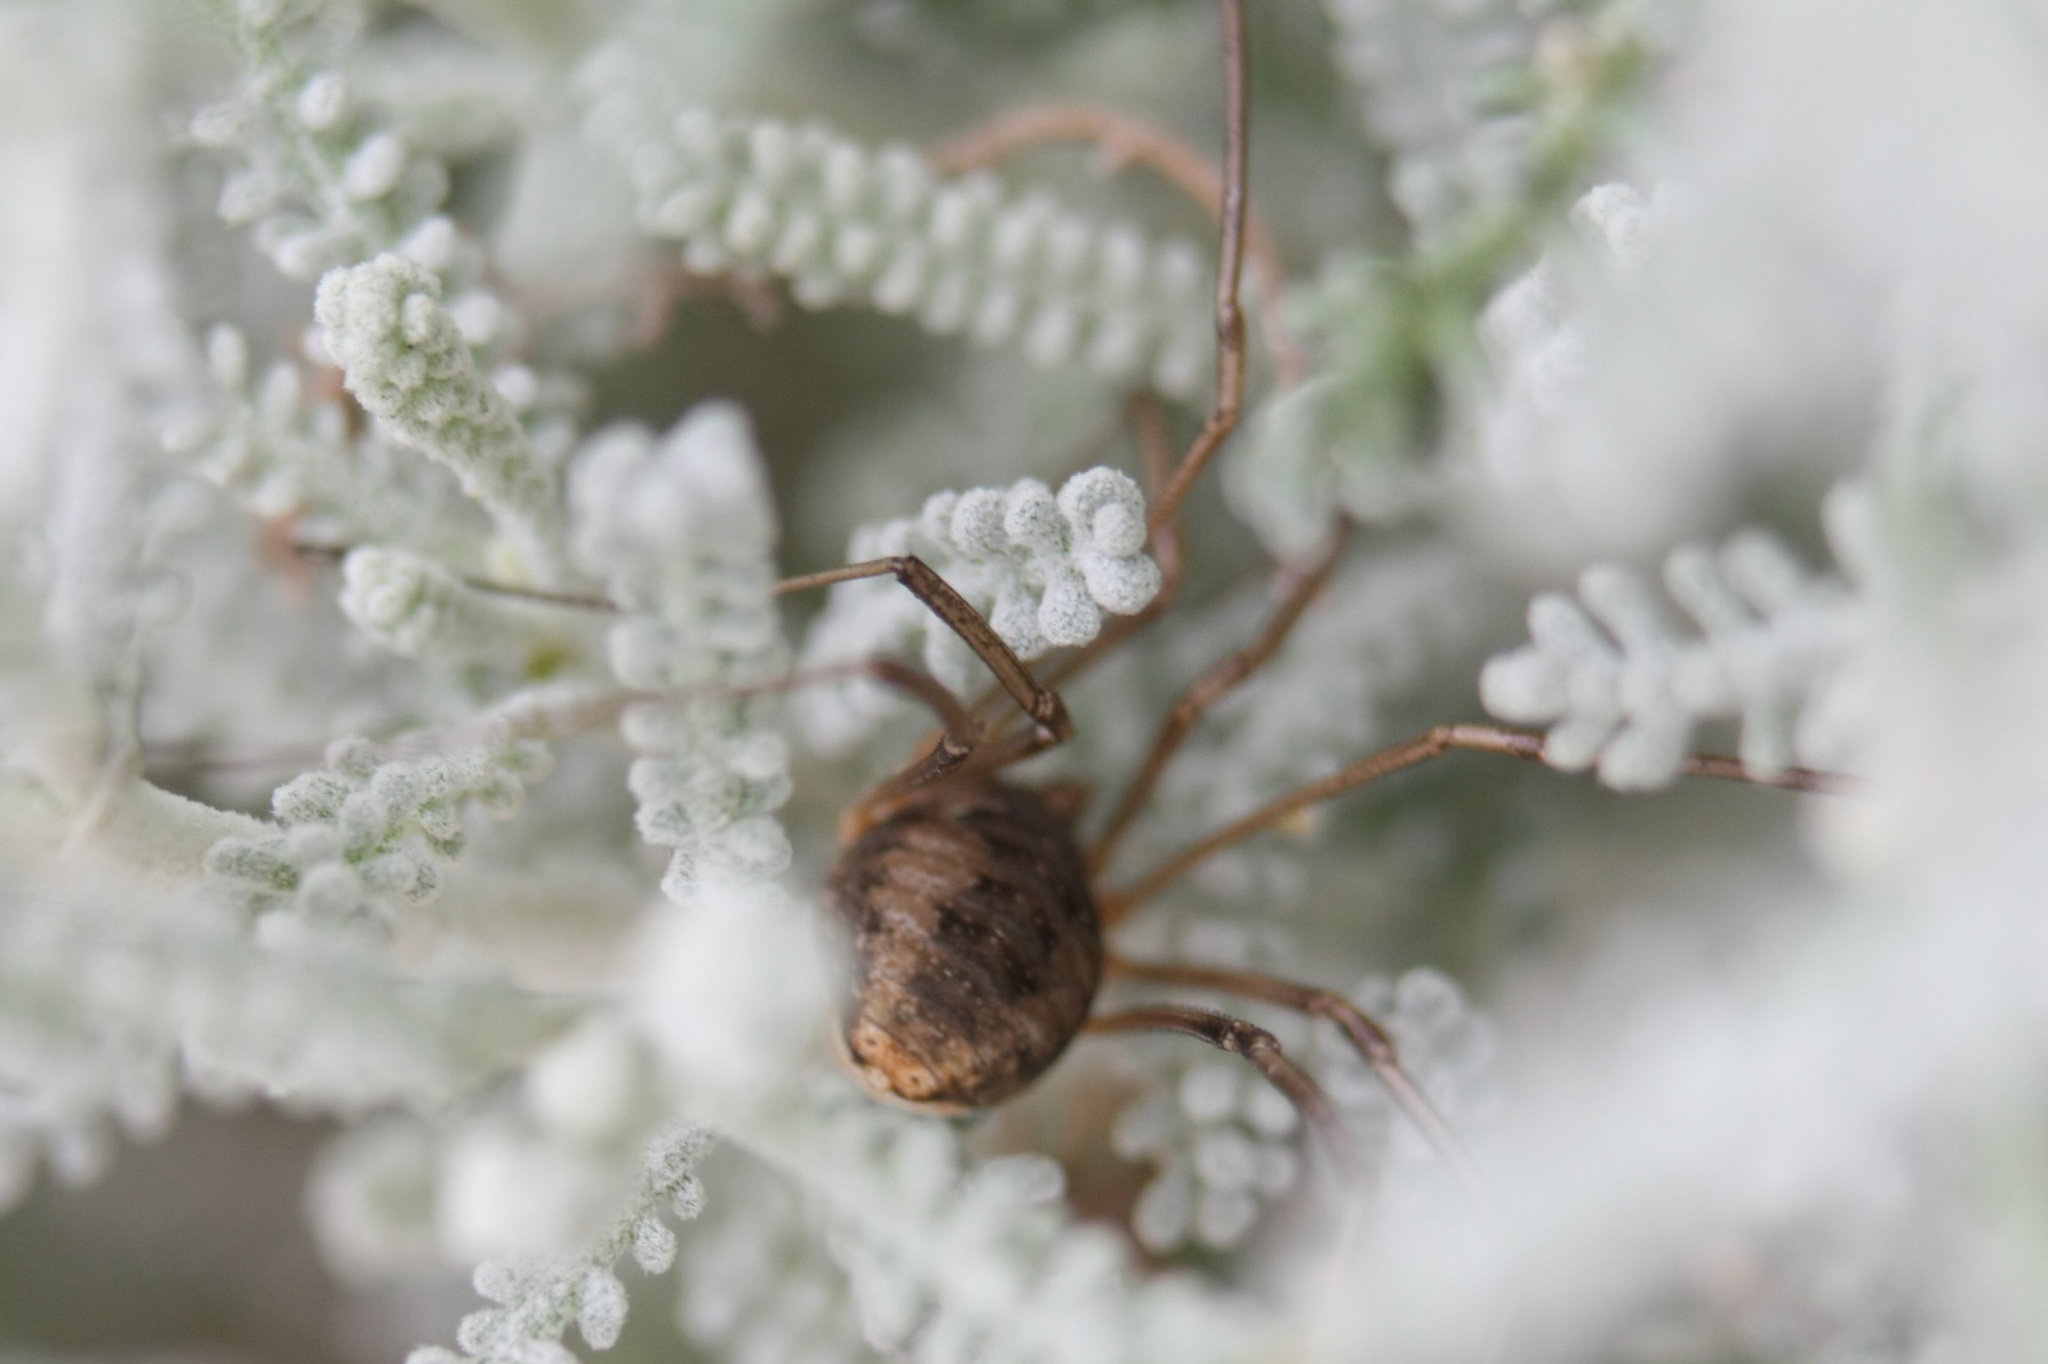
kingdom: Animalia
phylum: Arthropoda
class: Arachnida
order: Opiliones
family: Phalangiidae
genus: Phalangium
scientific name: Phalangium opilio
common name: Daddy longleg
